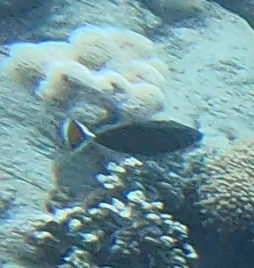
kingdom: Animalia
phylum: Chordata
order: Tetraodontiformes
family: Balistidae
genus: Sufflamen
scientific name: Sufflamen albicaudatum
